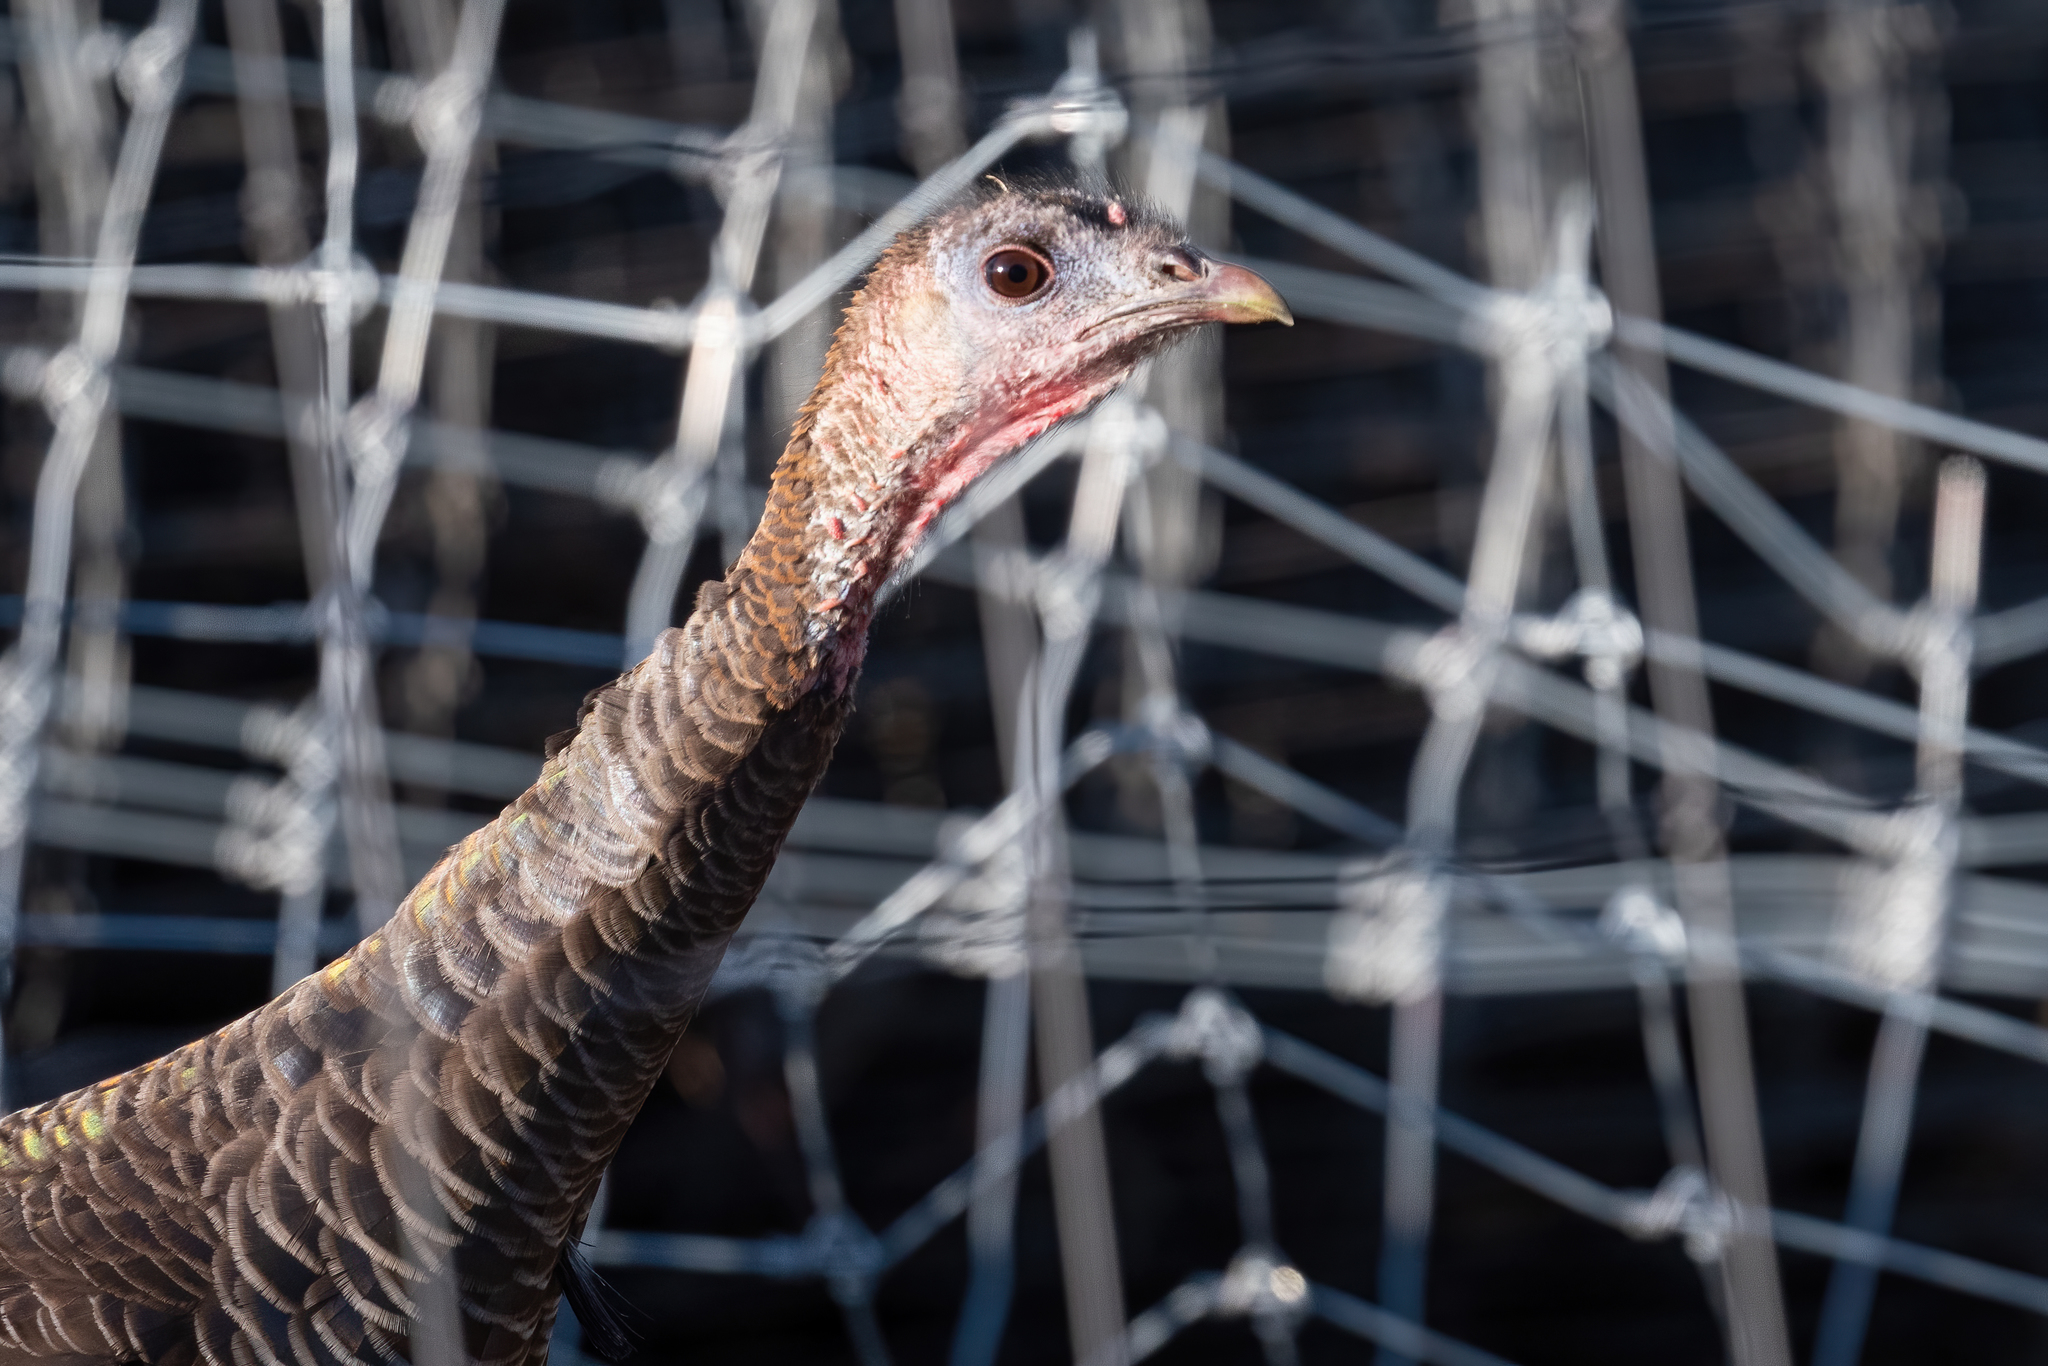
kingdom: Animalia
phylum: Chordata
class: Aves
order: Galliformes
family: Phasianidae
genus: Meleagris
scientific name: Meleagris gallopavo
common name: Wild turkey
